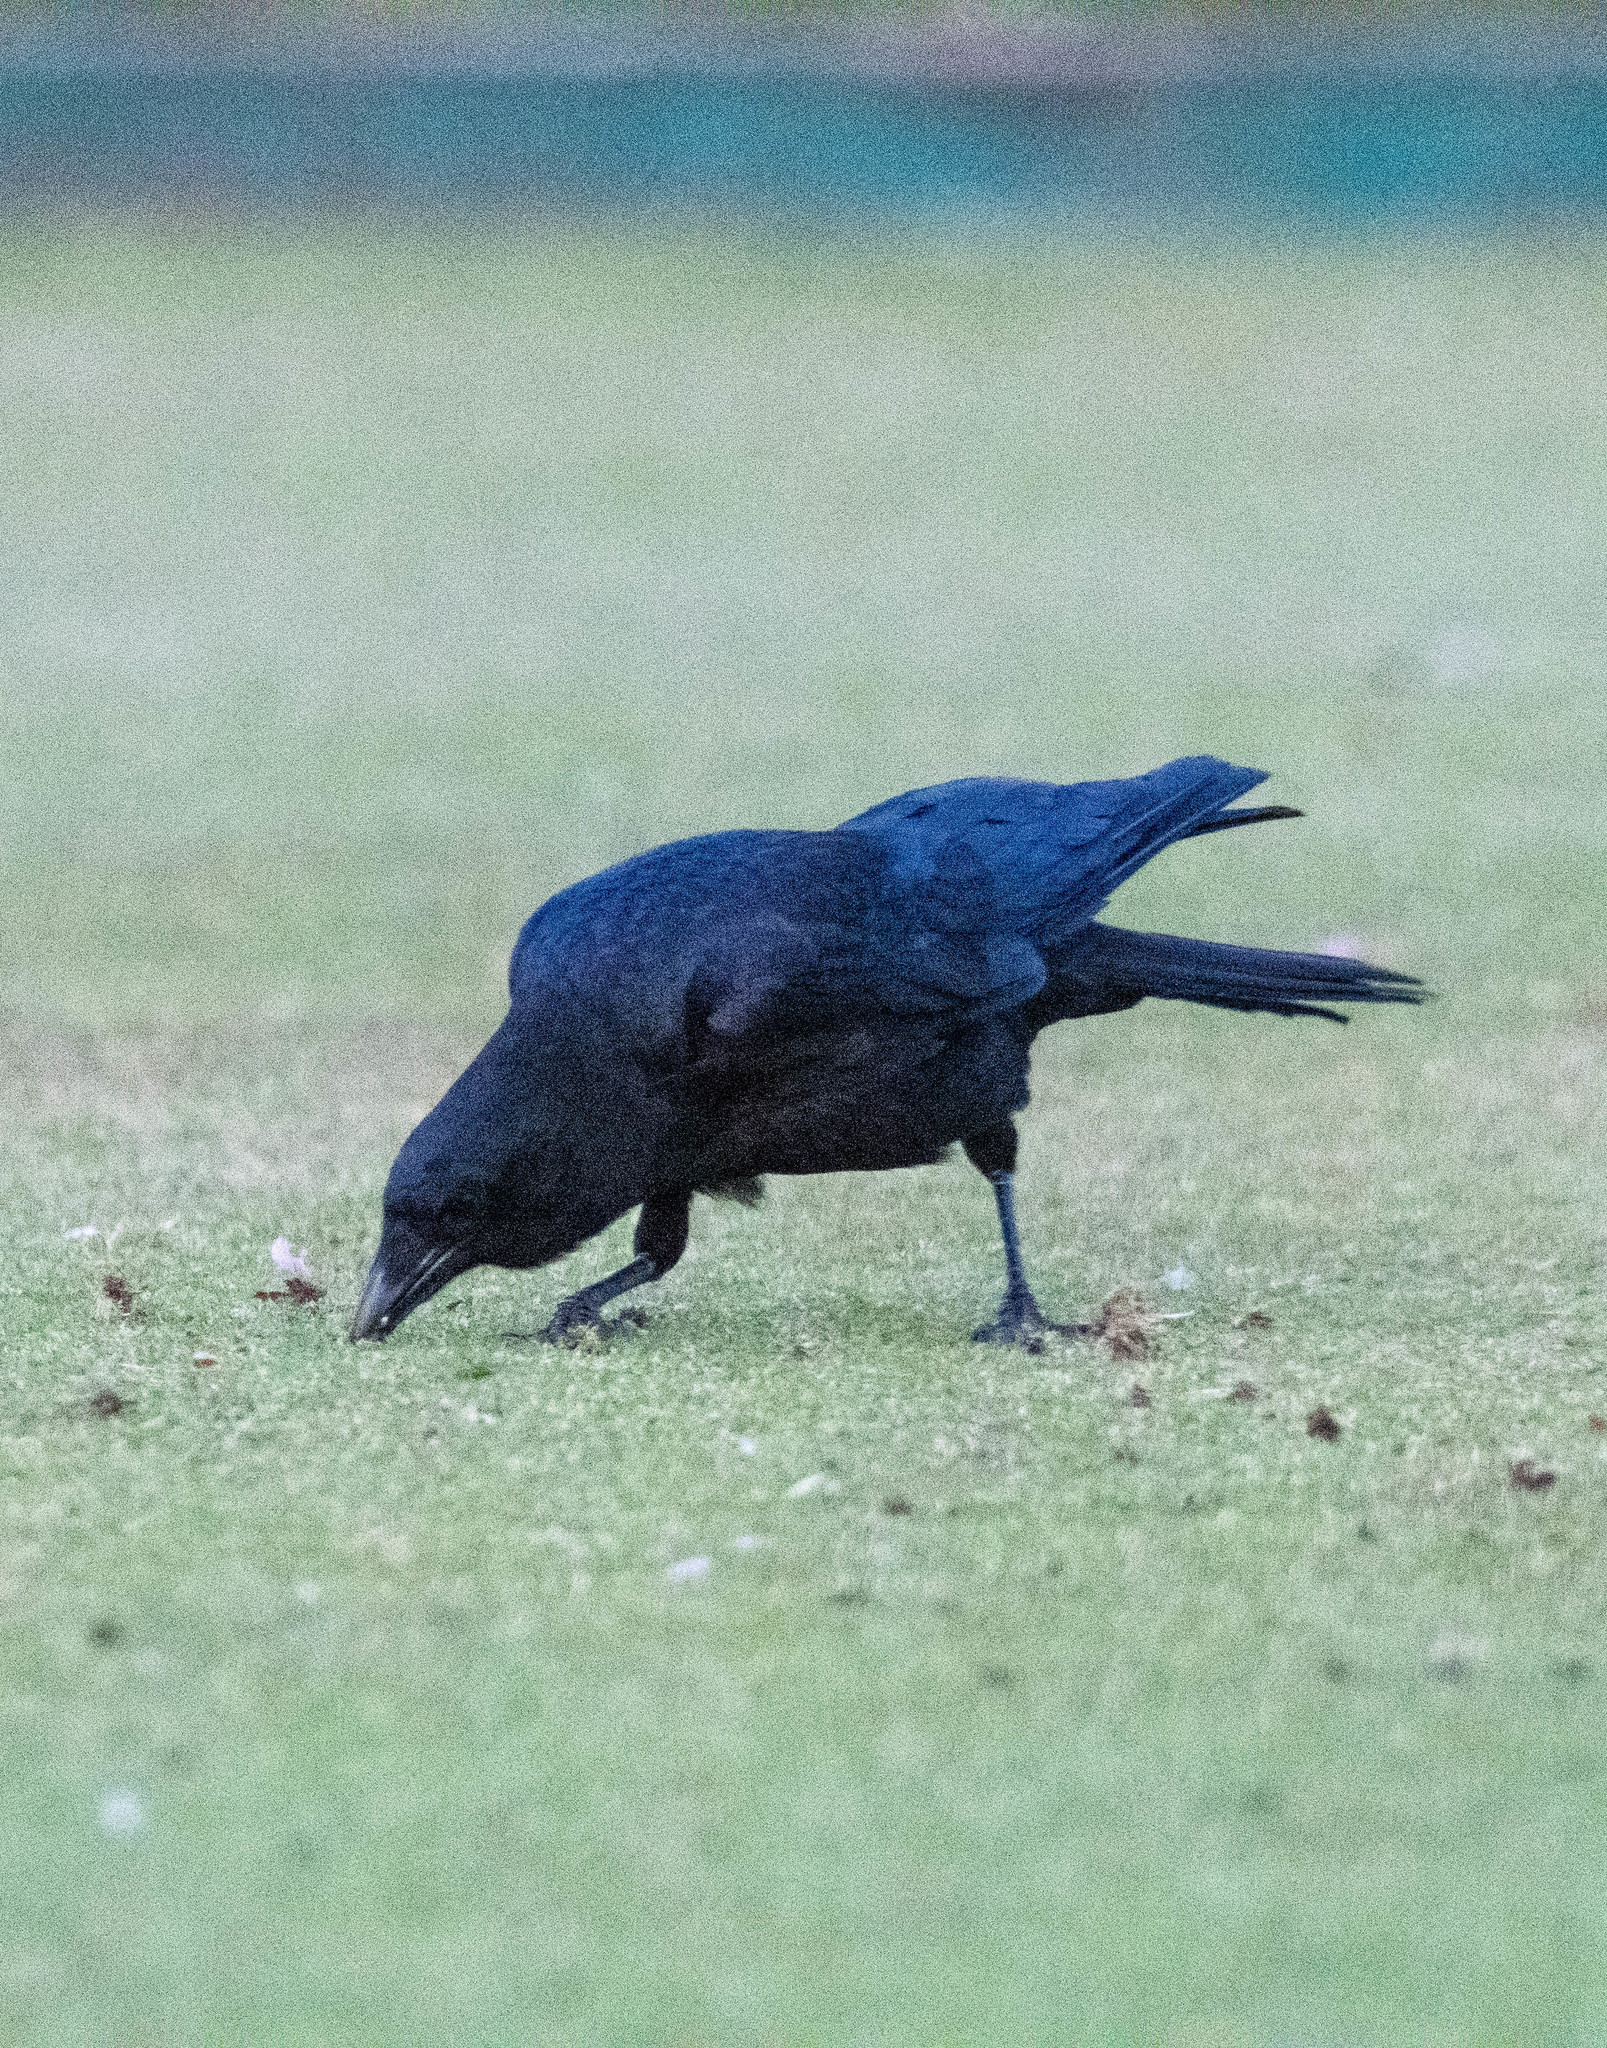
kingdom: Animalia
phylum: Chordata
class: Aves
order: Passeriformes
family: Corvidae
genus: Corvus
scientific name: Corvus brachyrhynchos
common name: American crow
